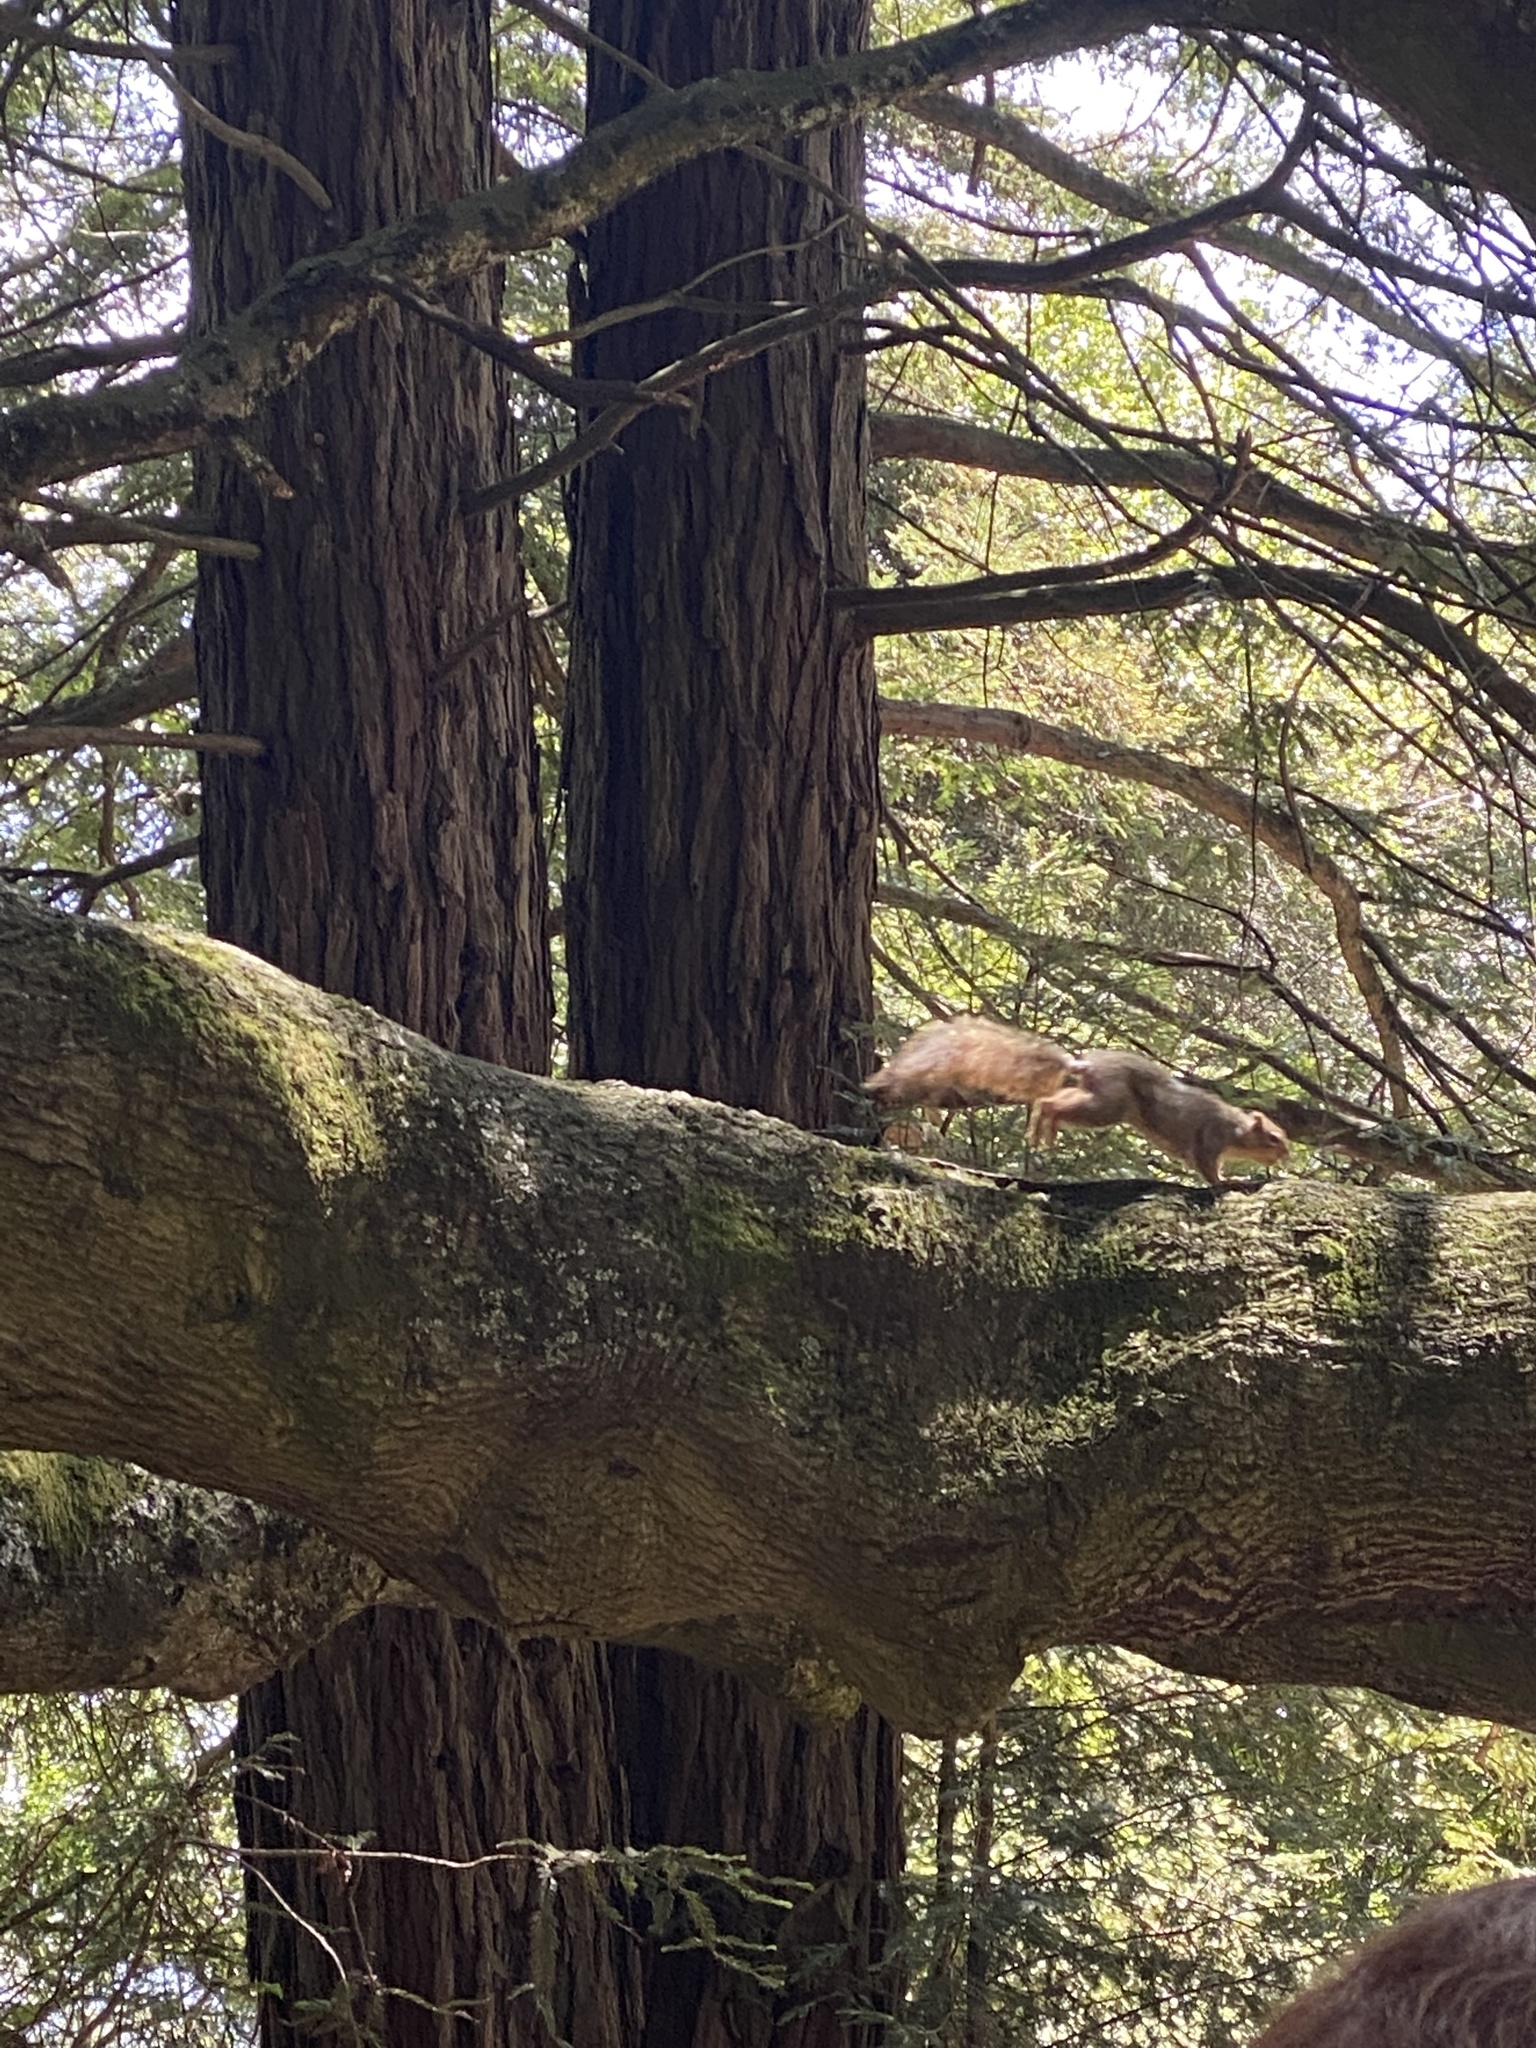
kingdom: Animalia
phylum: Chordata
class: Mammalia
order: Rodentia
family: Sciuridae
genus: Sciurus
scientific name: Sciurus niger
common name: Fox squirrel
